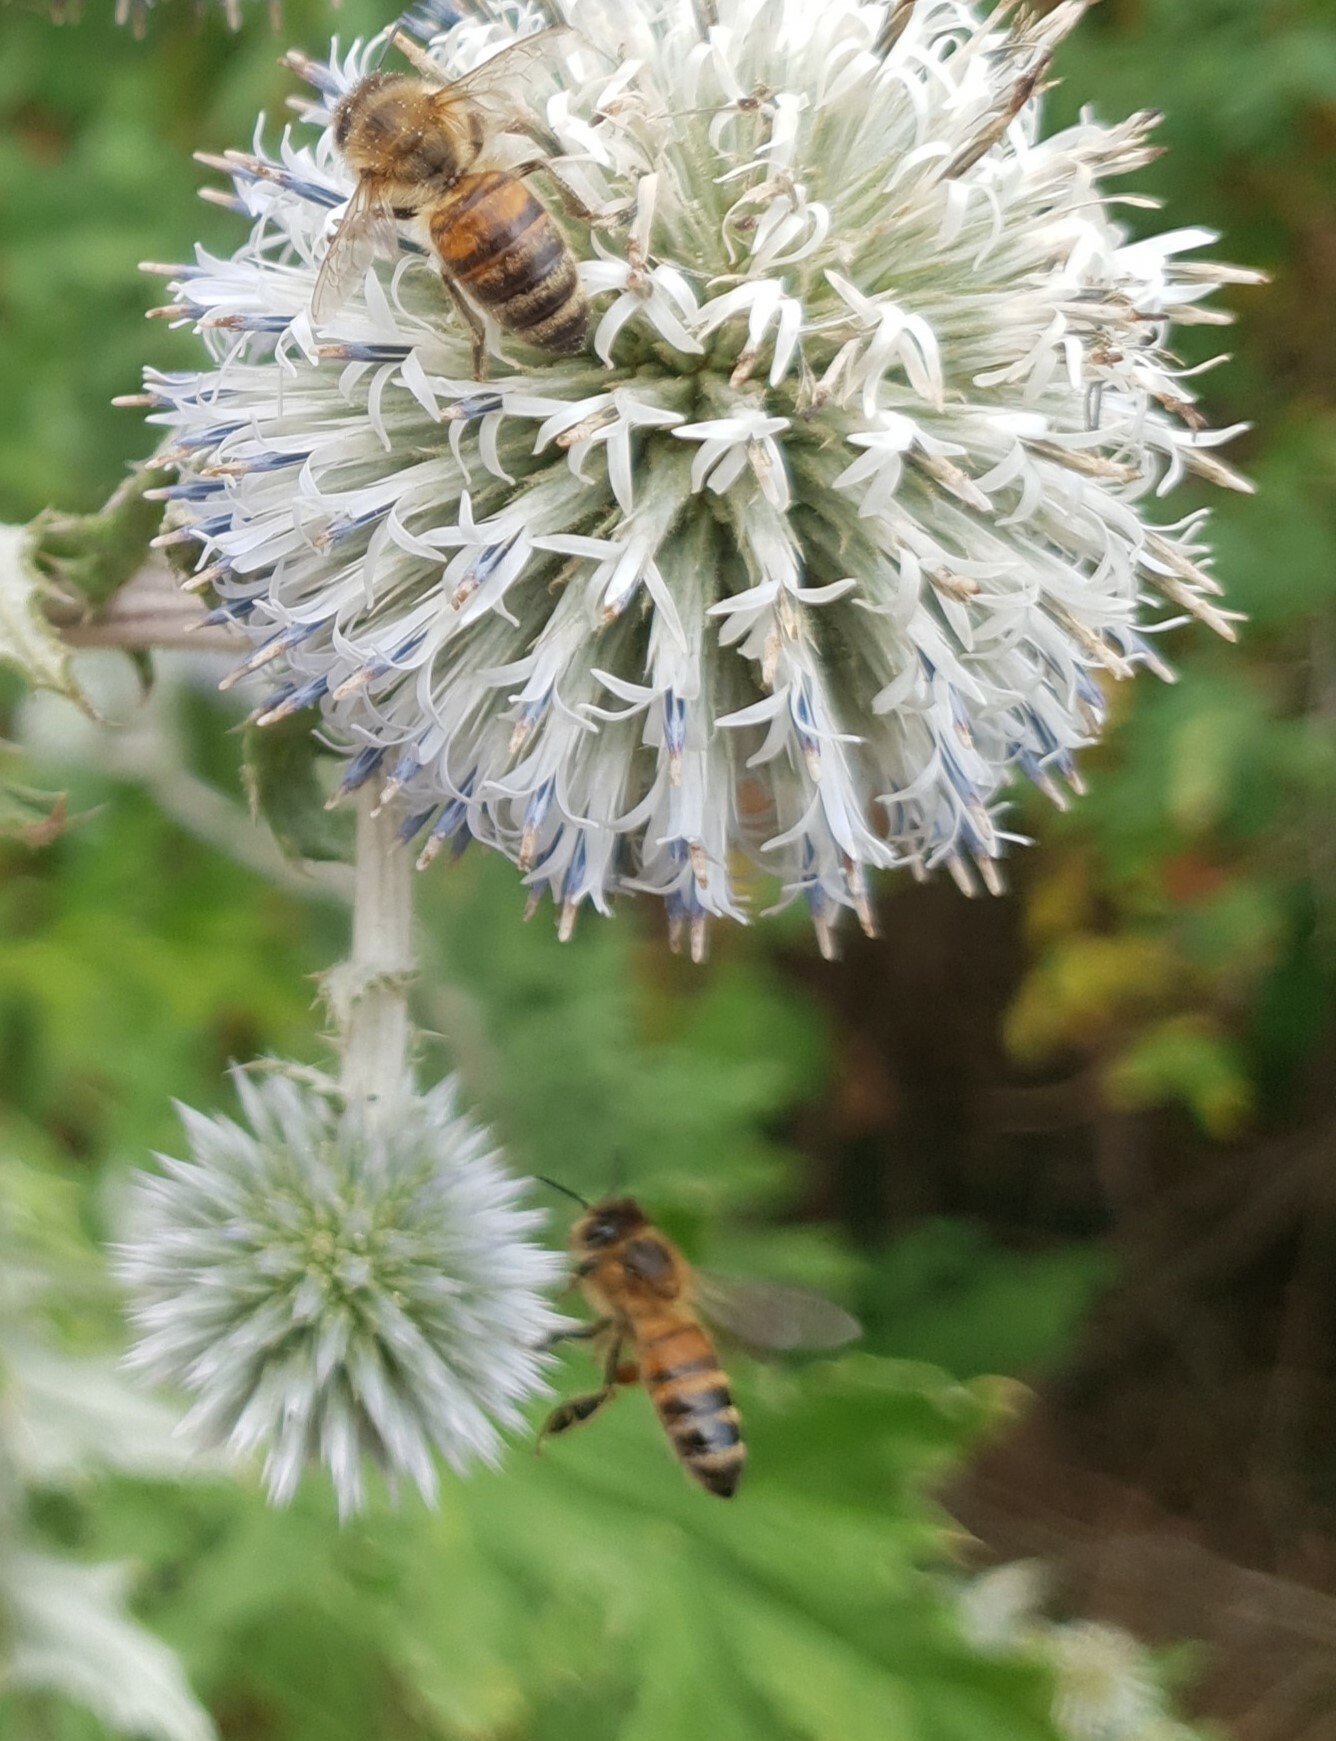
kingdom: Animalia
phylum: Arthropoda
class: Insecta
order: Hymenoptera
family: Apidae
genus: Apis
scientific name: Apis mellifera
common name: Honey bee
